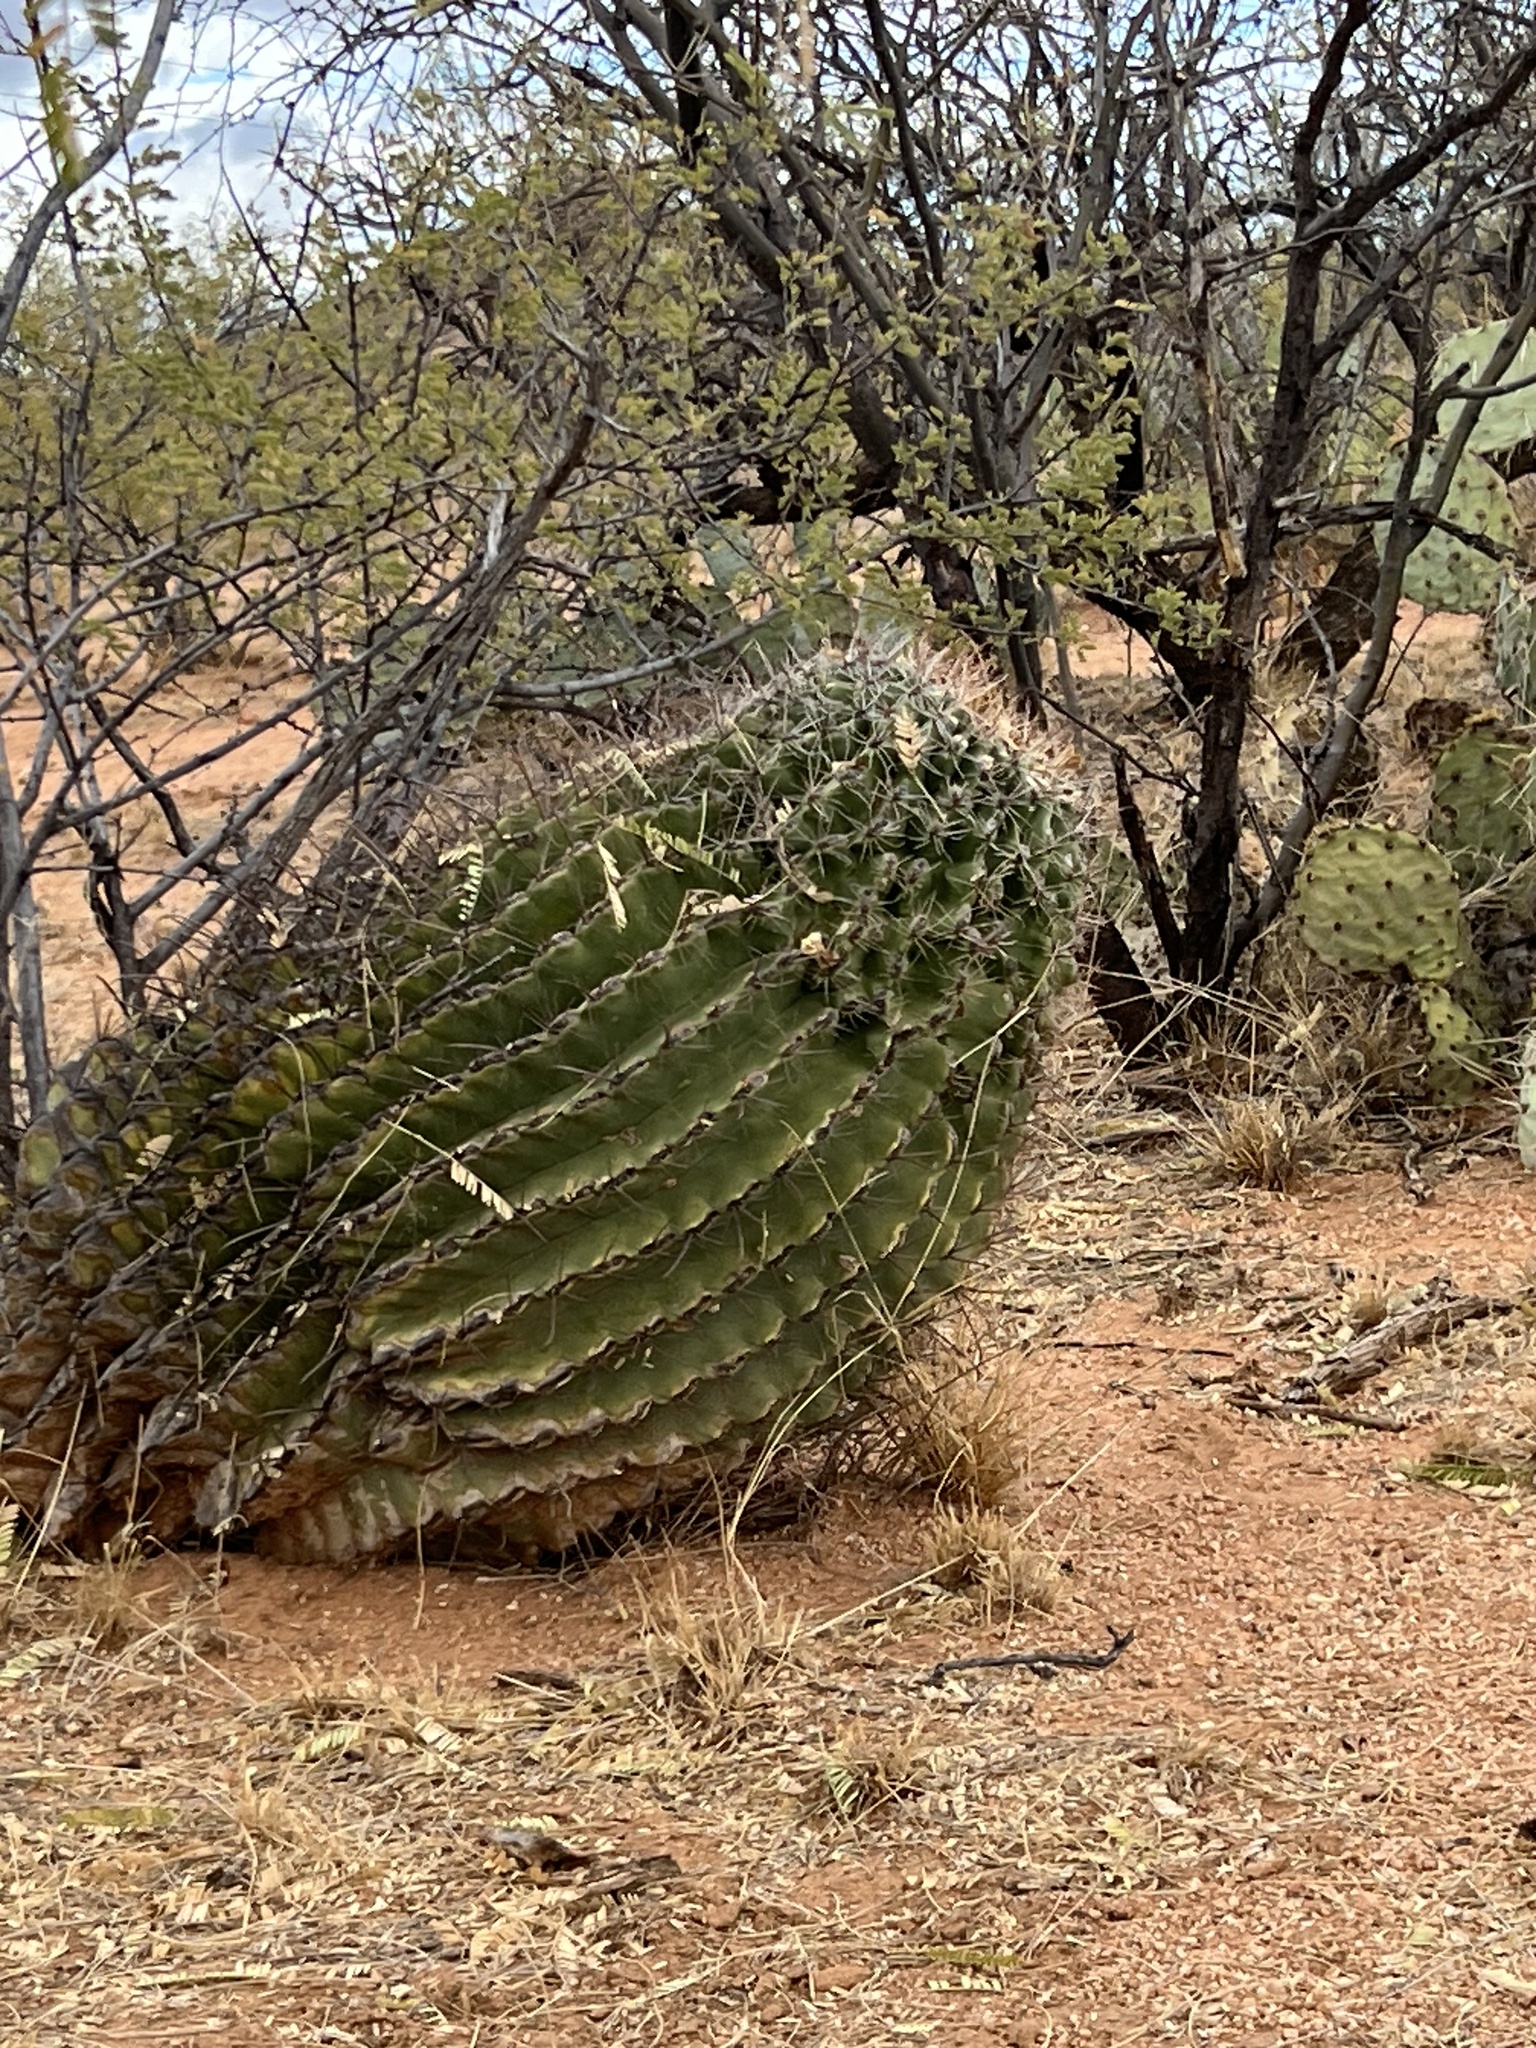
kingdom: Plantae
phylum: Tracheophyta
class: Magnoliopsida
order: Caryophyllales
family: Cactaceae
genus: Ferocactus
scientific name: Ferocactus wislizeni
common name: Candy barrel cactus
